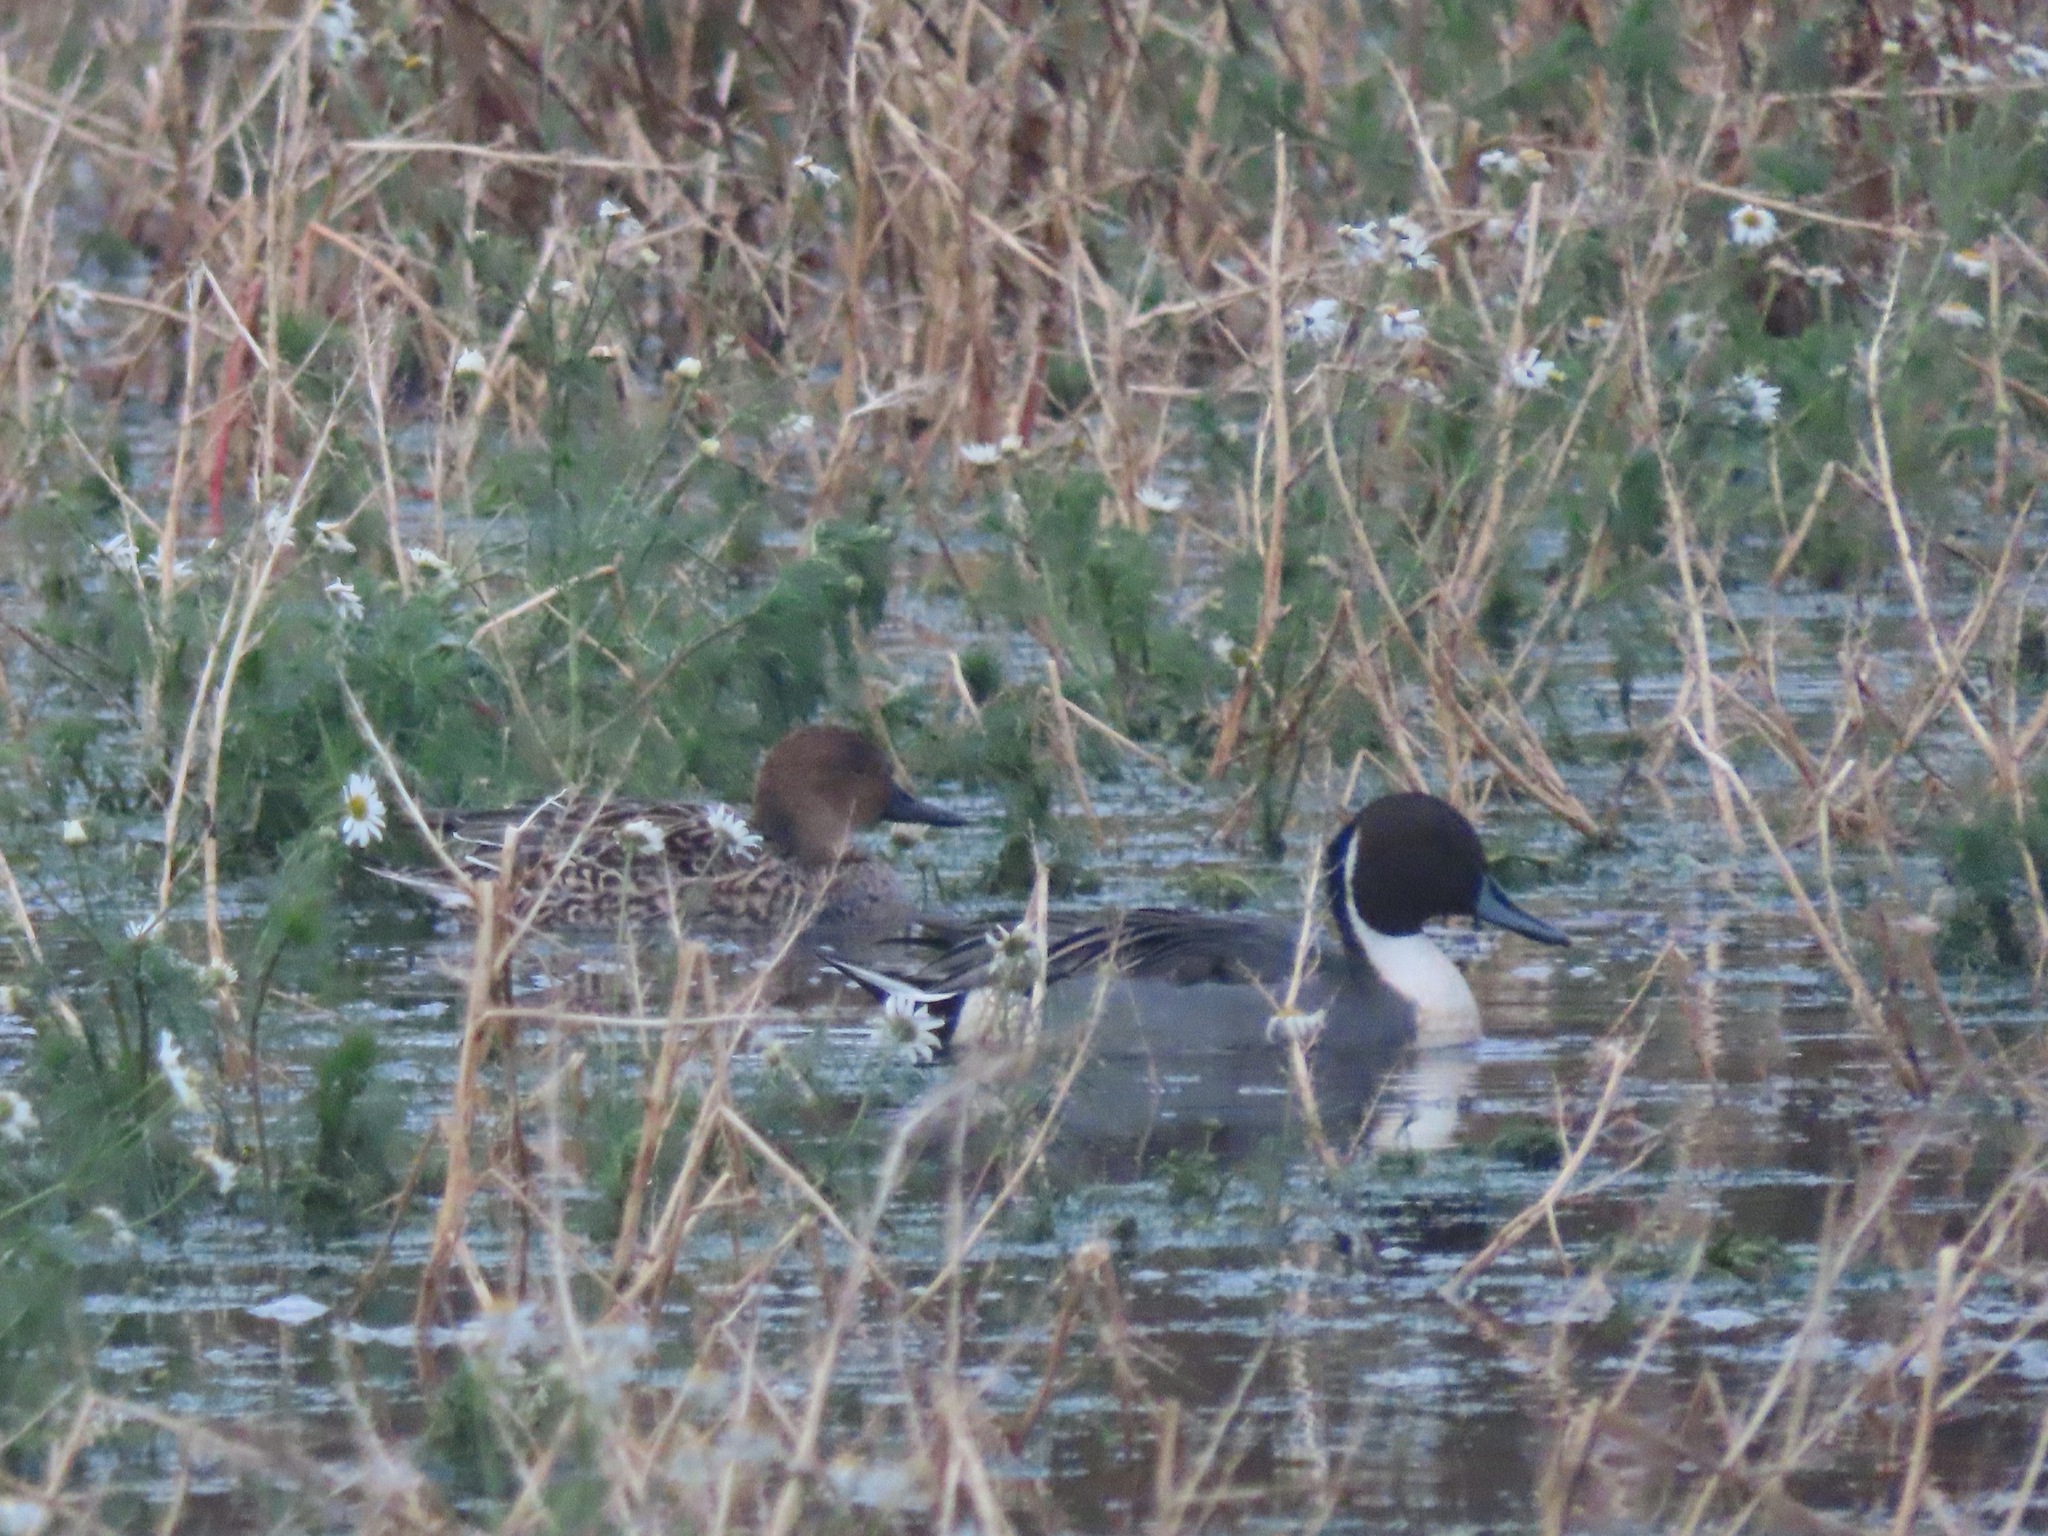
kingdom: Animalia
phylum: Chordata
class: Aves
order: Anseriformes
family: Anatidae
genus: Anas
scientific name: Anas acuta
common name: Northern pintail
